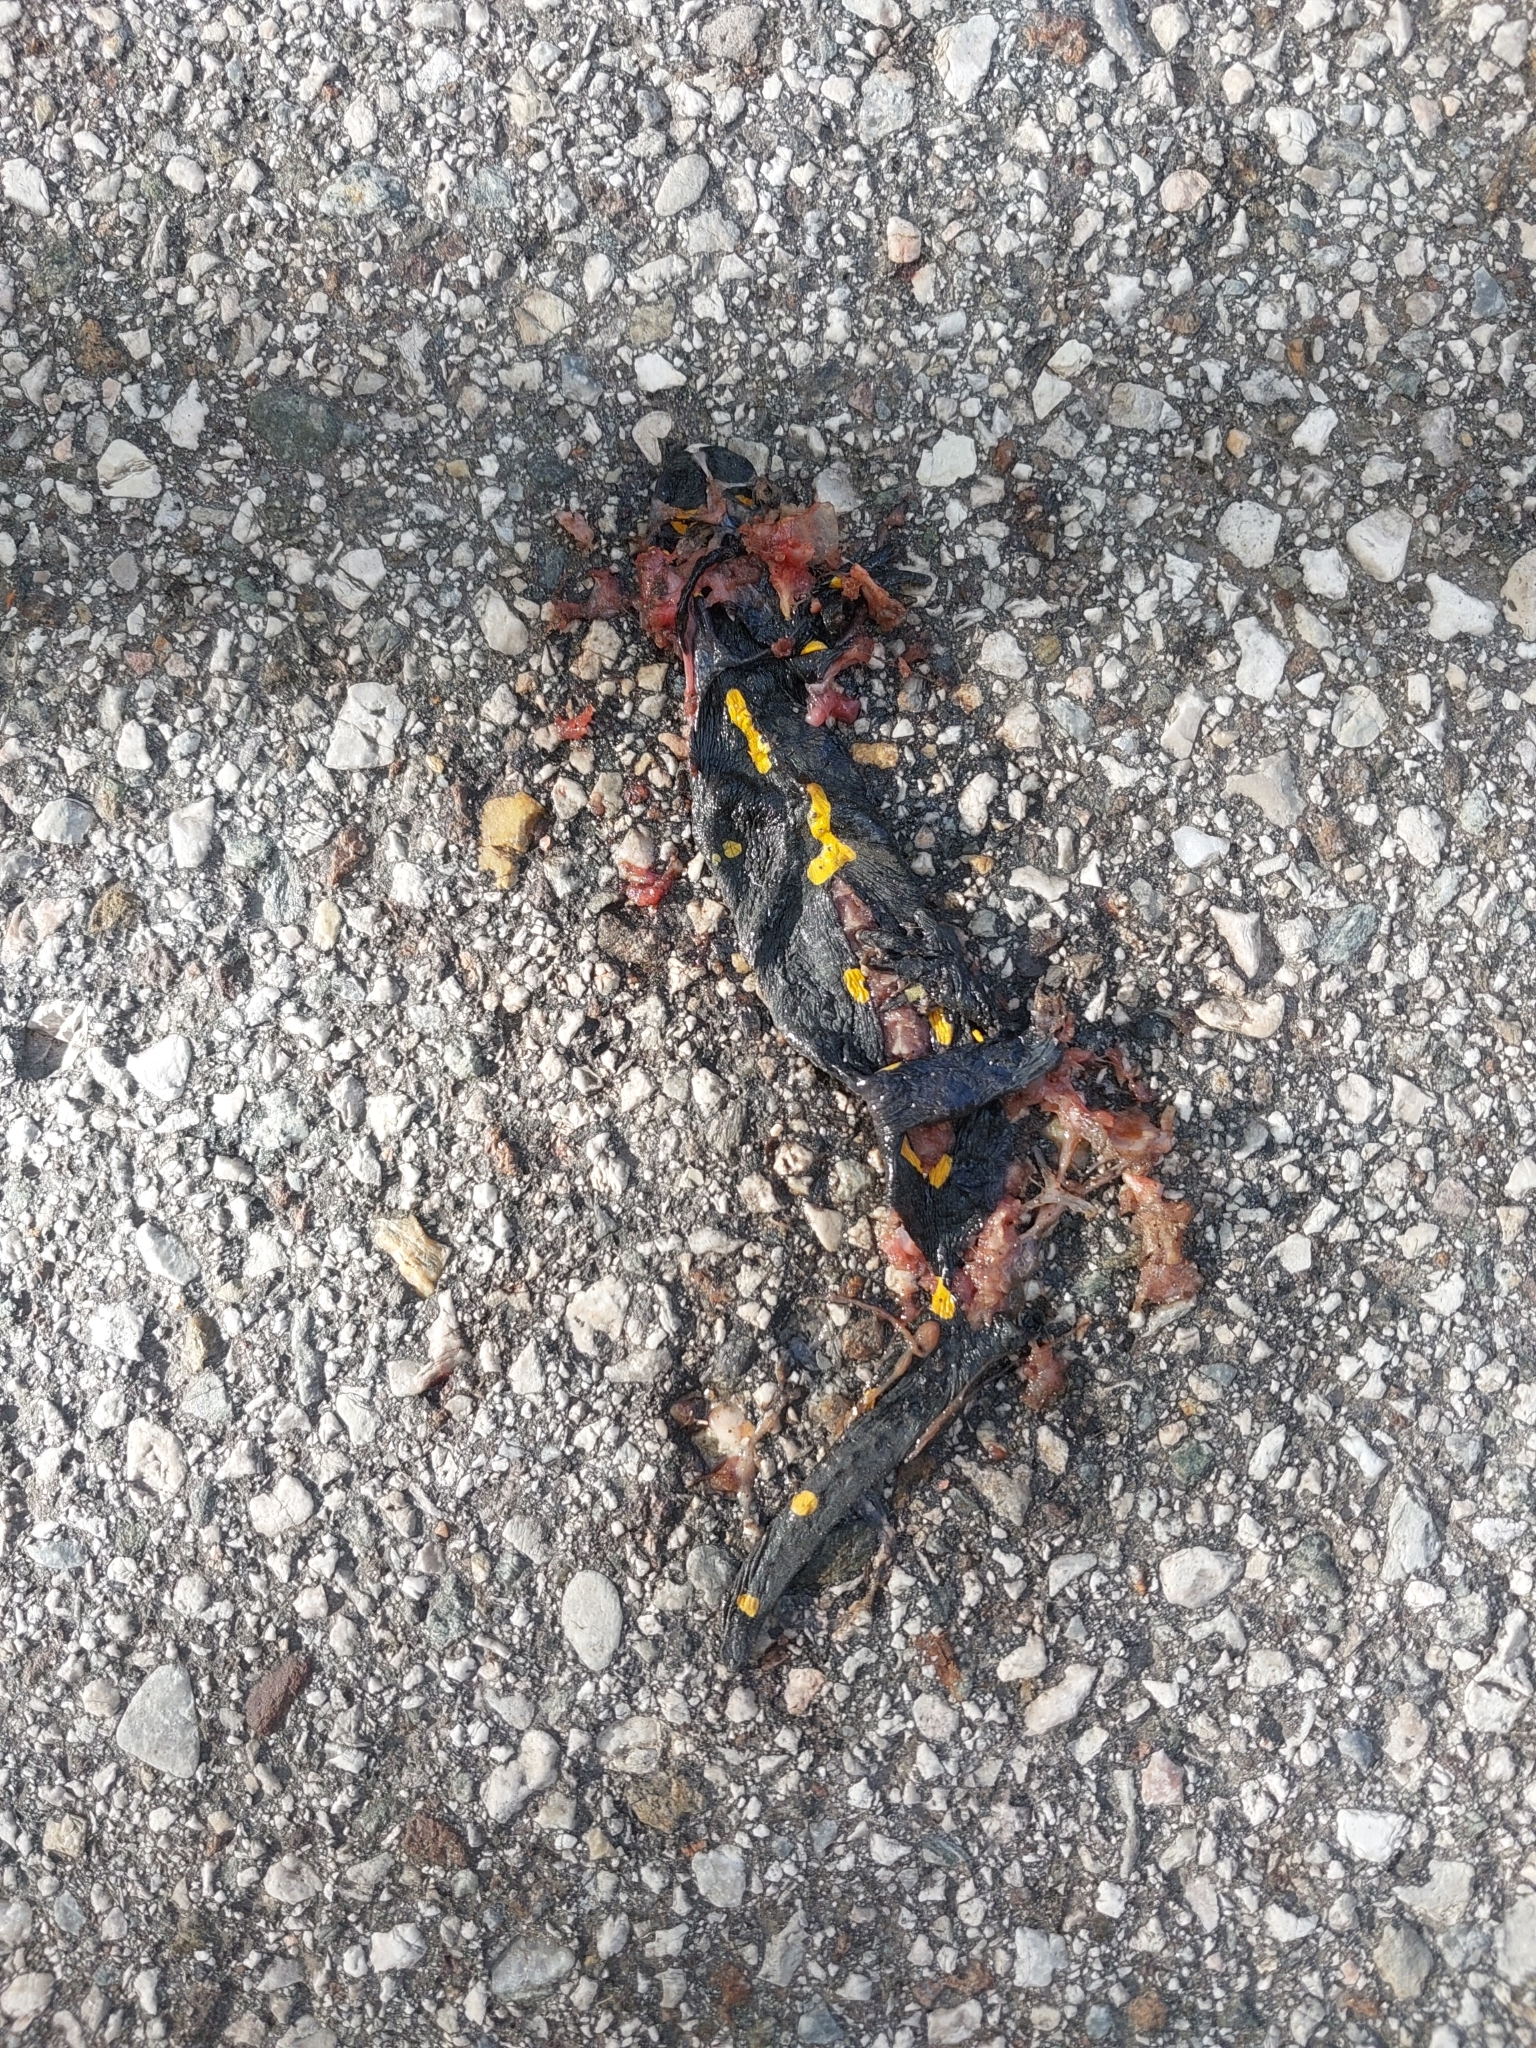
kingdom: Animalia
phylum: Chordata
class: Amphibia
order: Caudata
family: Salamandridae
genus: Salamandra
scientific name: Salamandra salamandra
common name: Fire salamander
